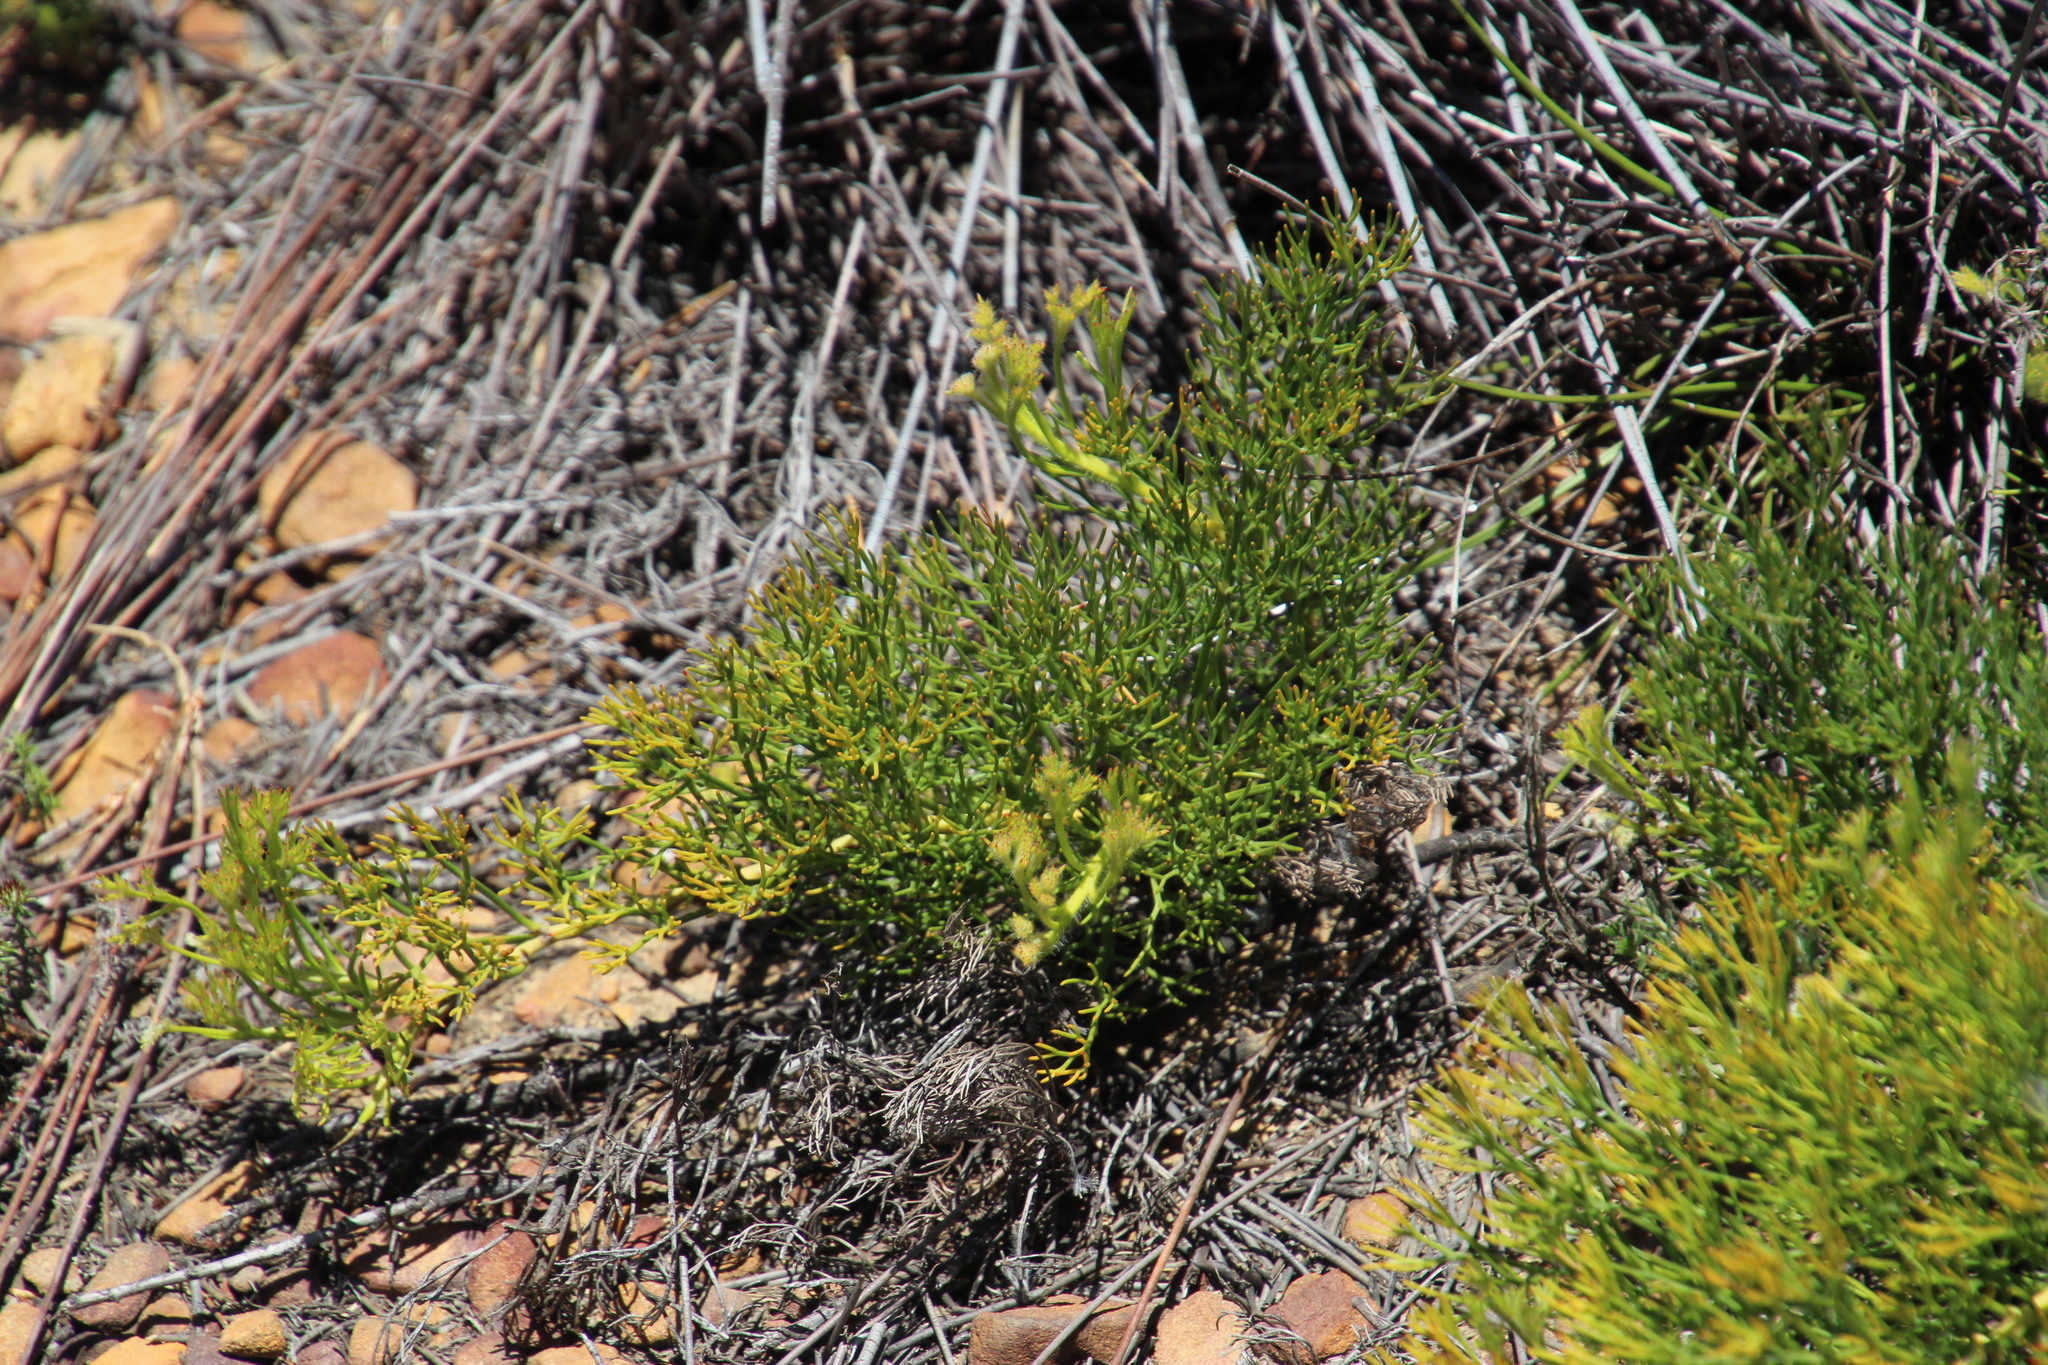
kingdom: Plantae
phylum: Tracheophyta
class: Magnoliopsida
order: Proteales
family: Proteaceae
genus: Serruria
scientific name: Serruria cygnea
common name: Swan spiderhead
